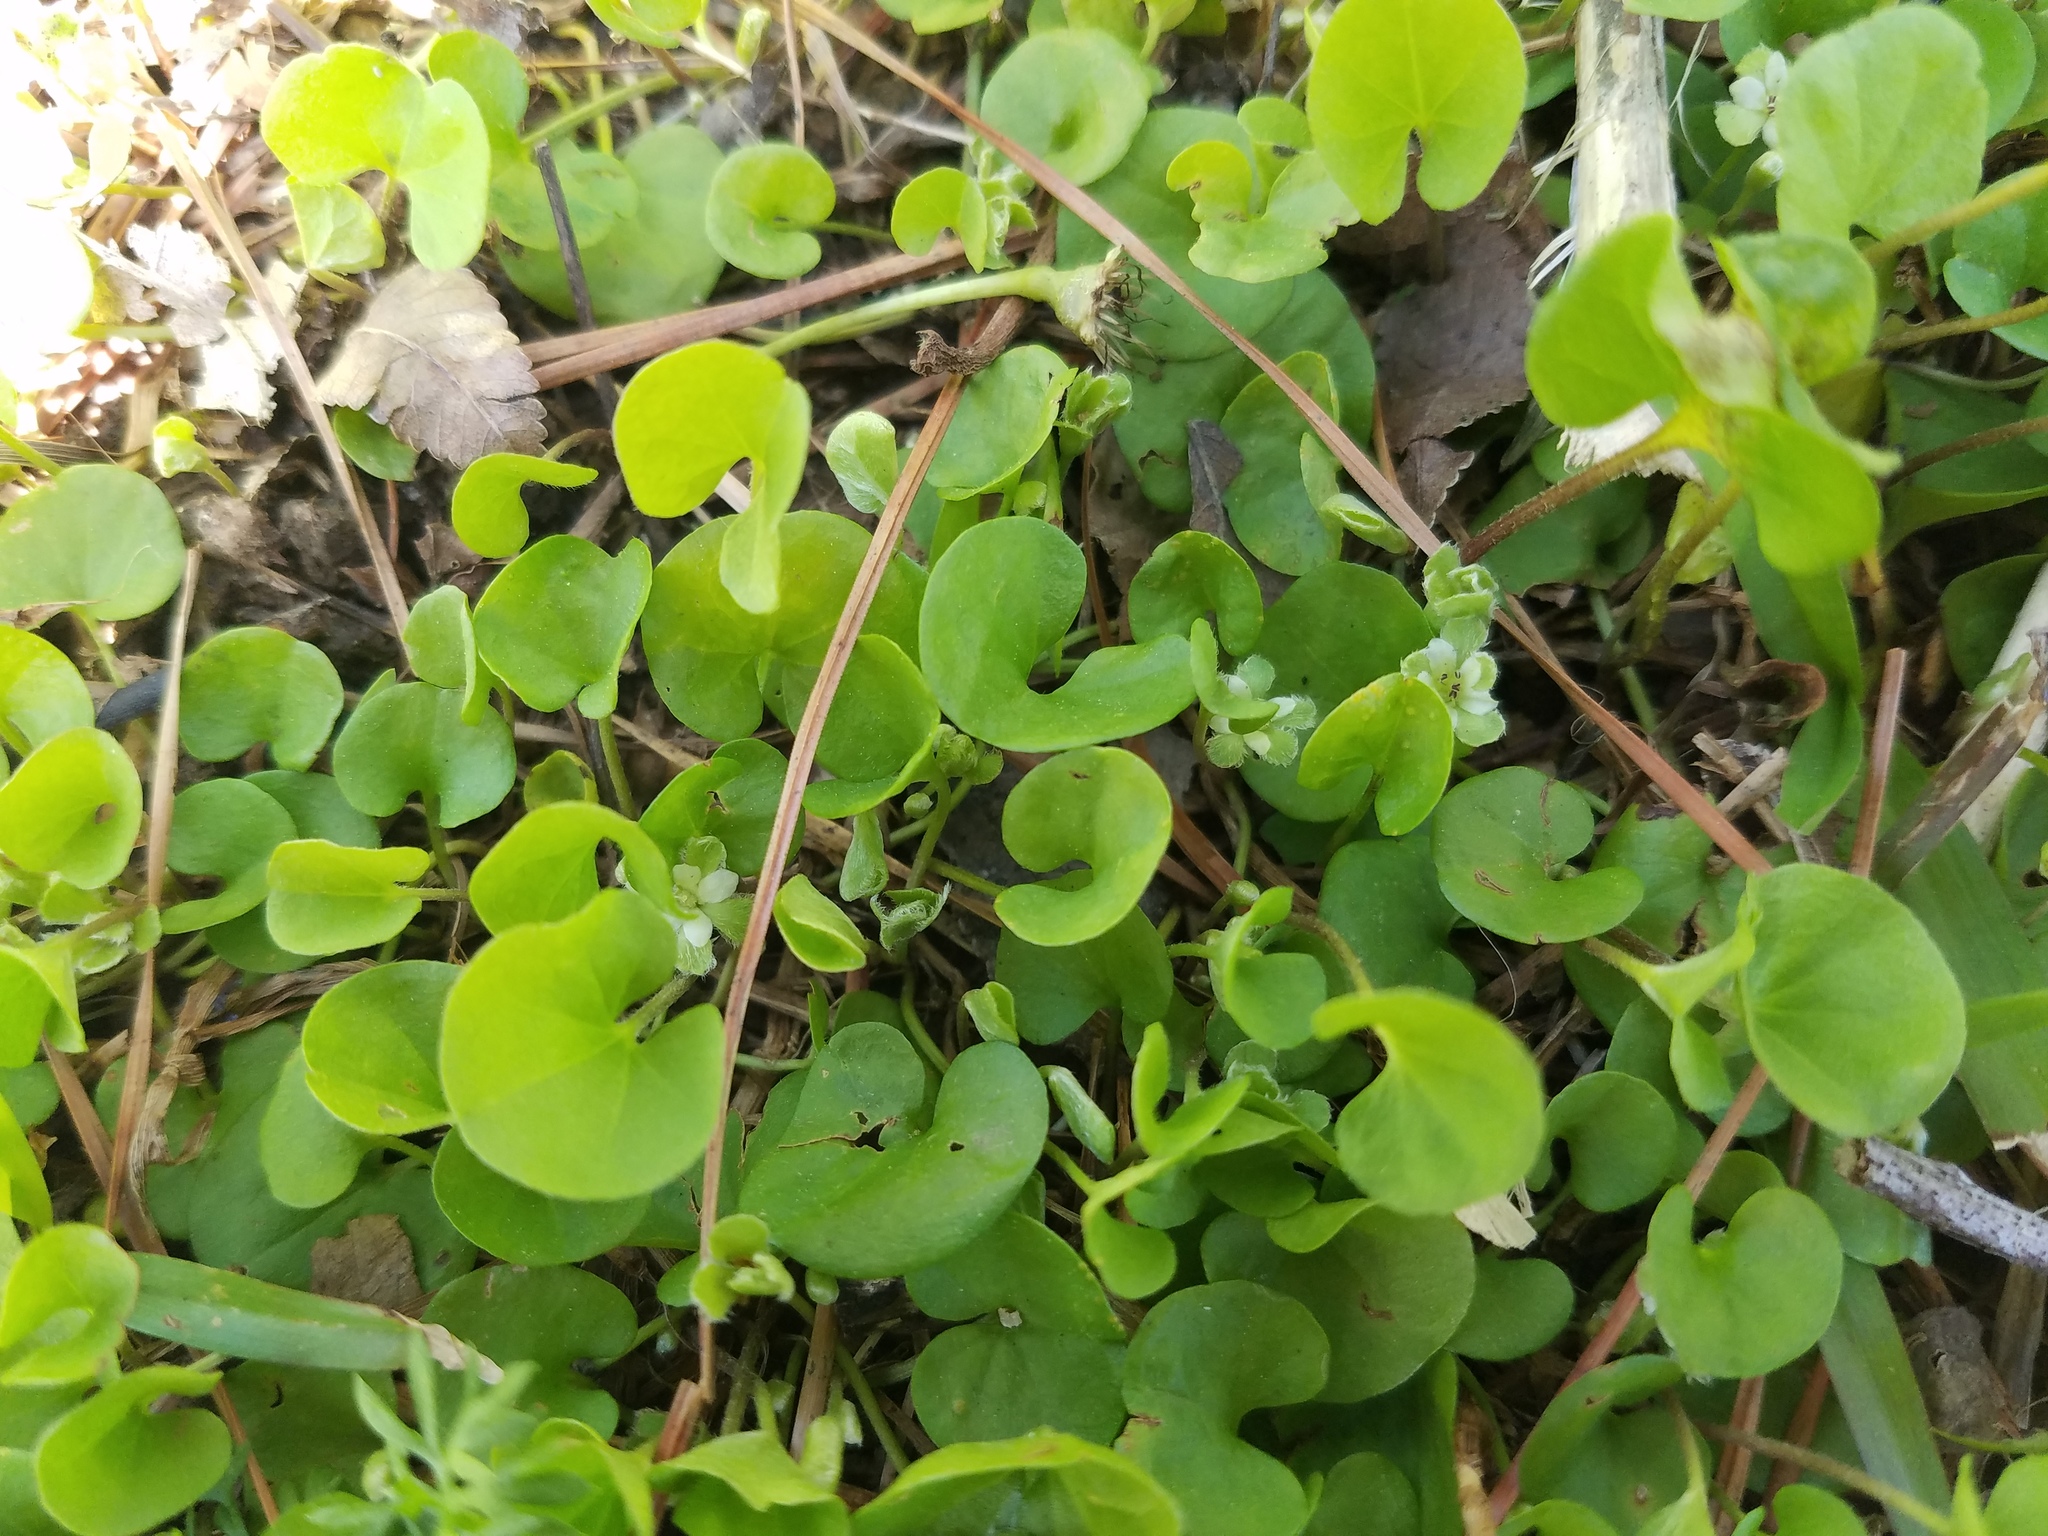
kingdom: Plantae
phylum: Tracheophyta
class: Magnoliopsida
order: Solanales
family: Convolvulaceae
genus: Dichondra
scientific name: Dichondra carolinensis
